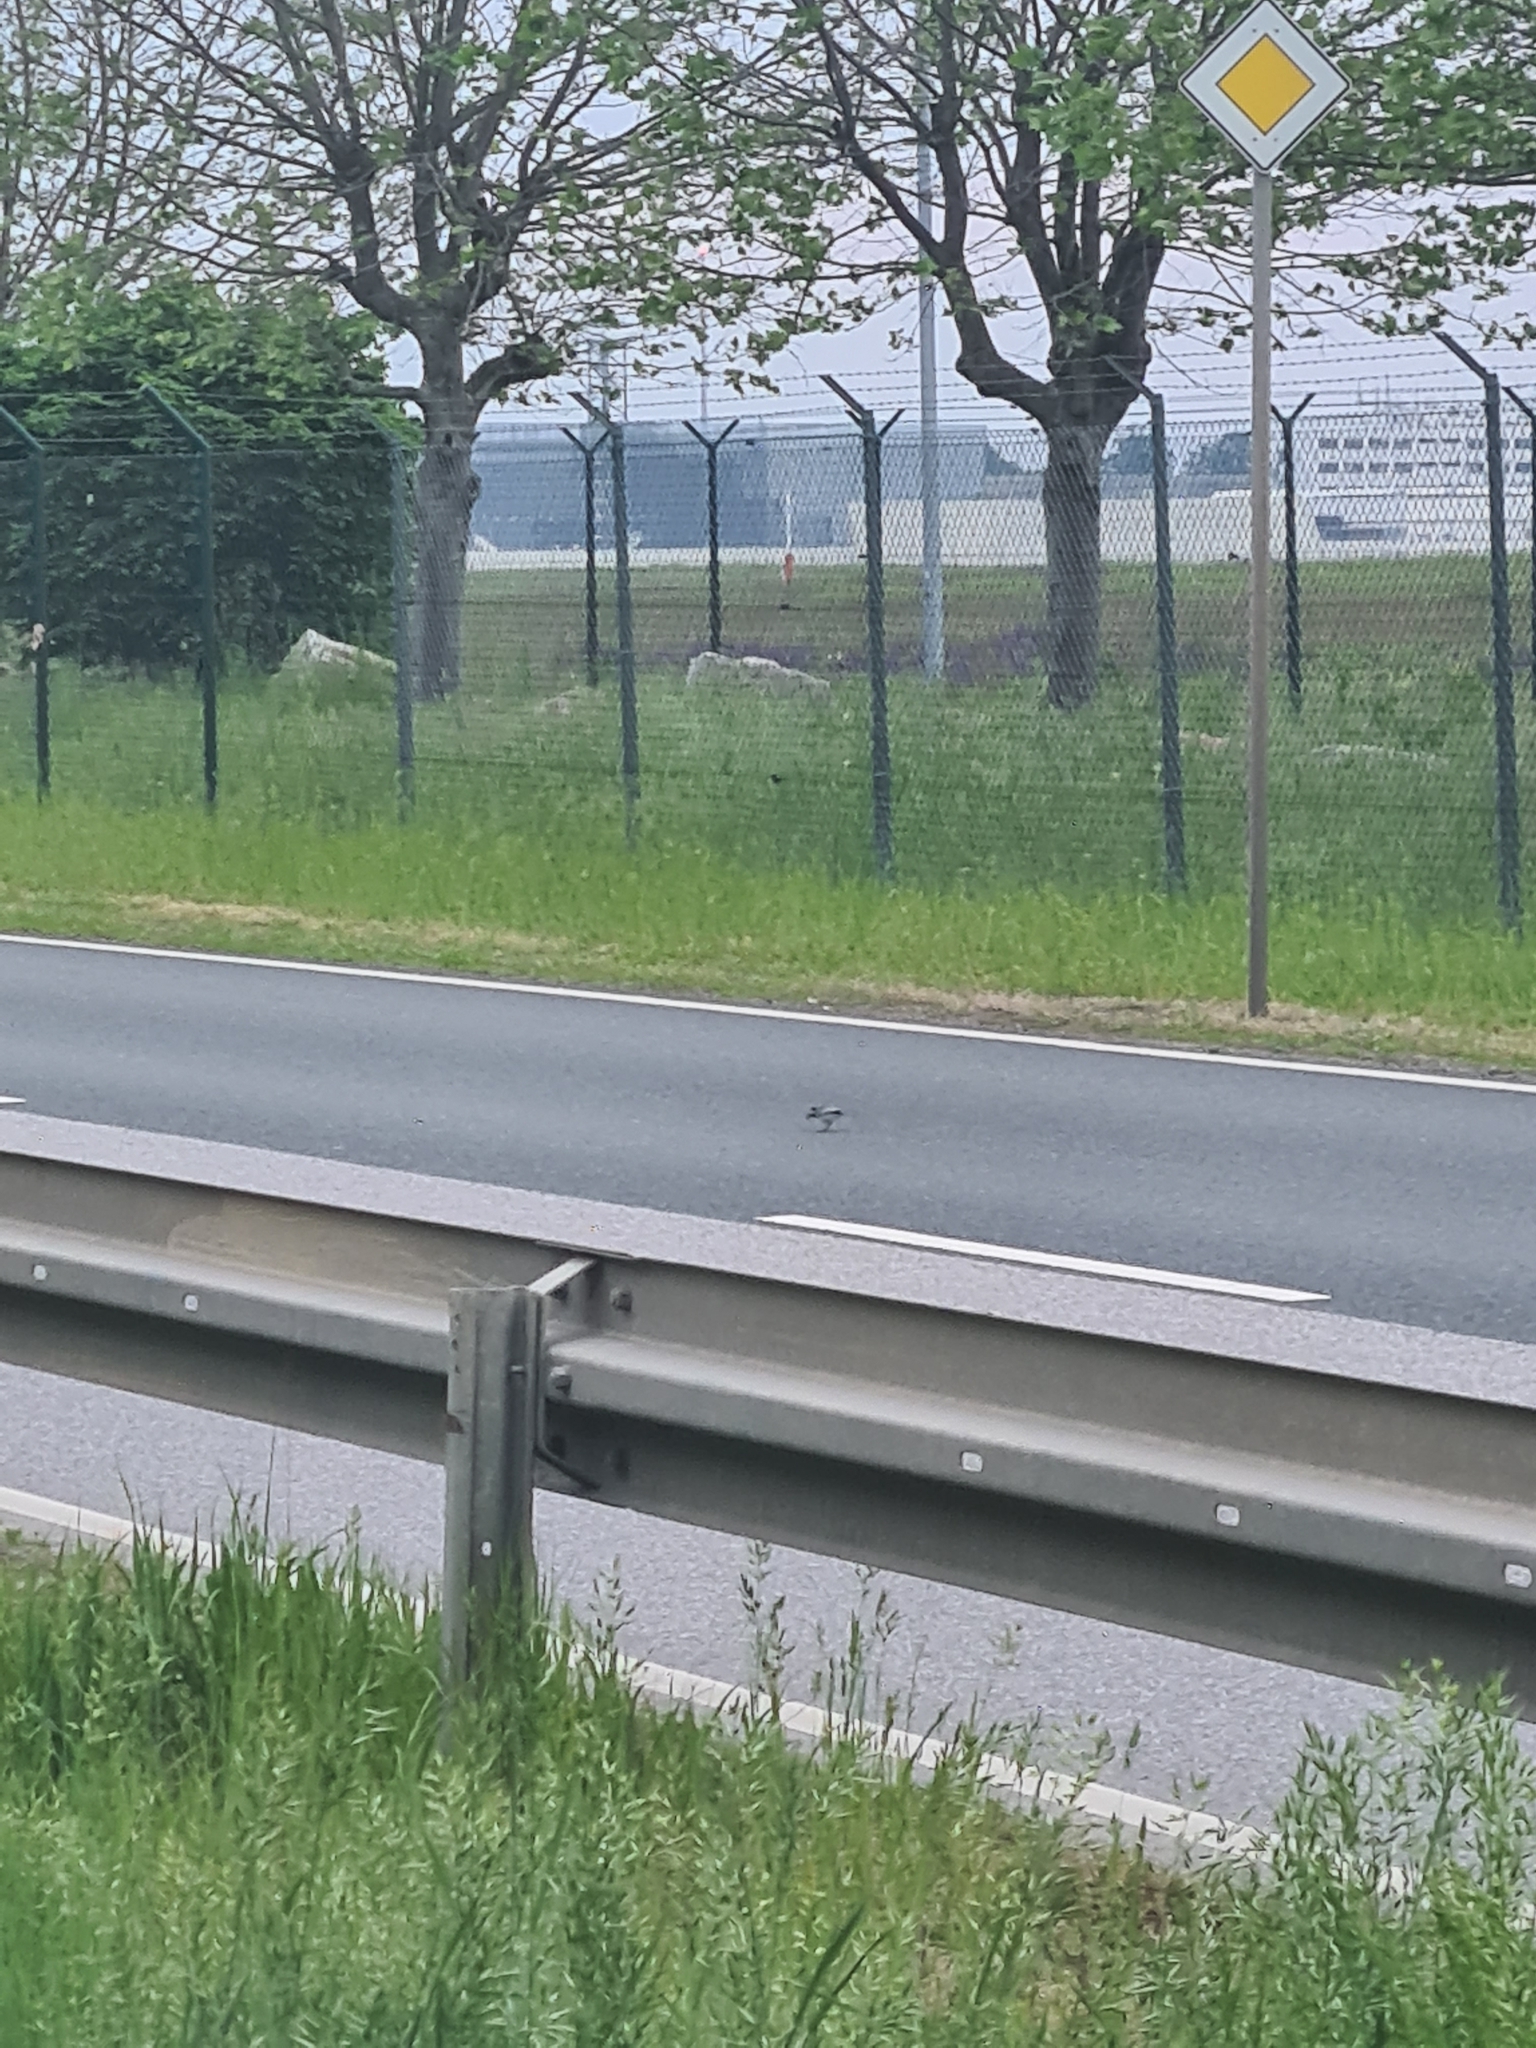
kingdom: Animalia
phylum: Chordata
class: Aves
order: Passeriformes
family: Motacillidae
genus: Motacilla
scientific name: Motacilla alba
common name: White wagtail
